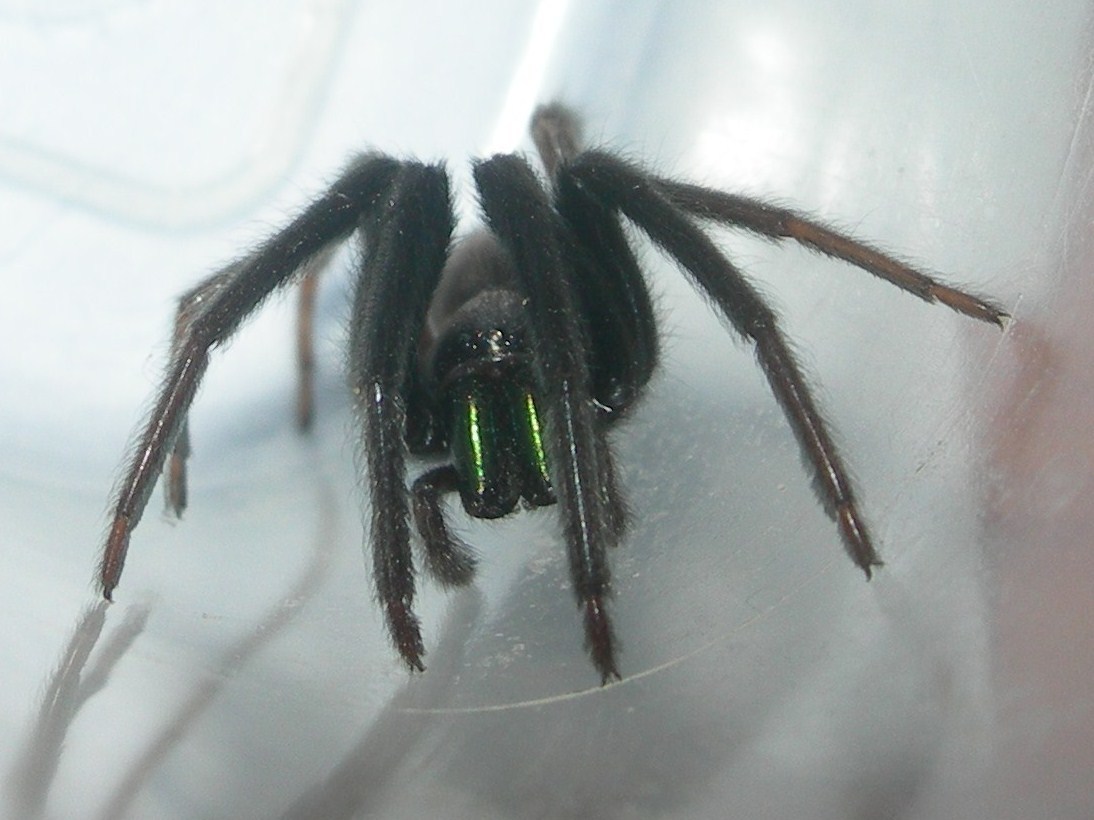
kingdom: Animalia
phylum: Arthropoda
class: Arachnida
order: Araneae
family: Segestriidae
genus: Segestria
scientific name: Segestria florentina
